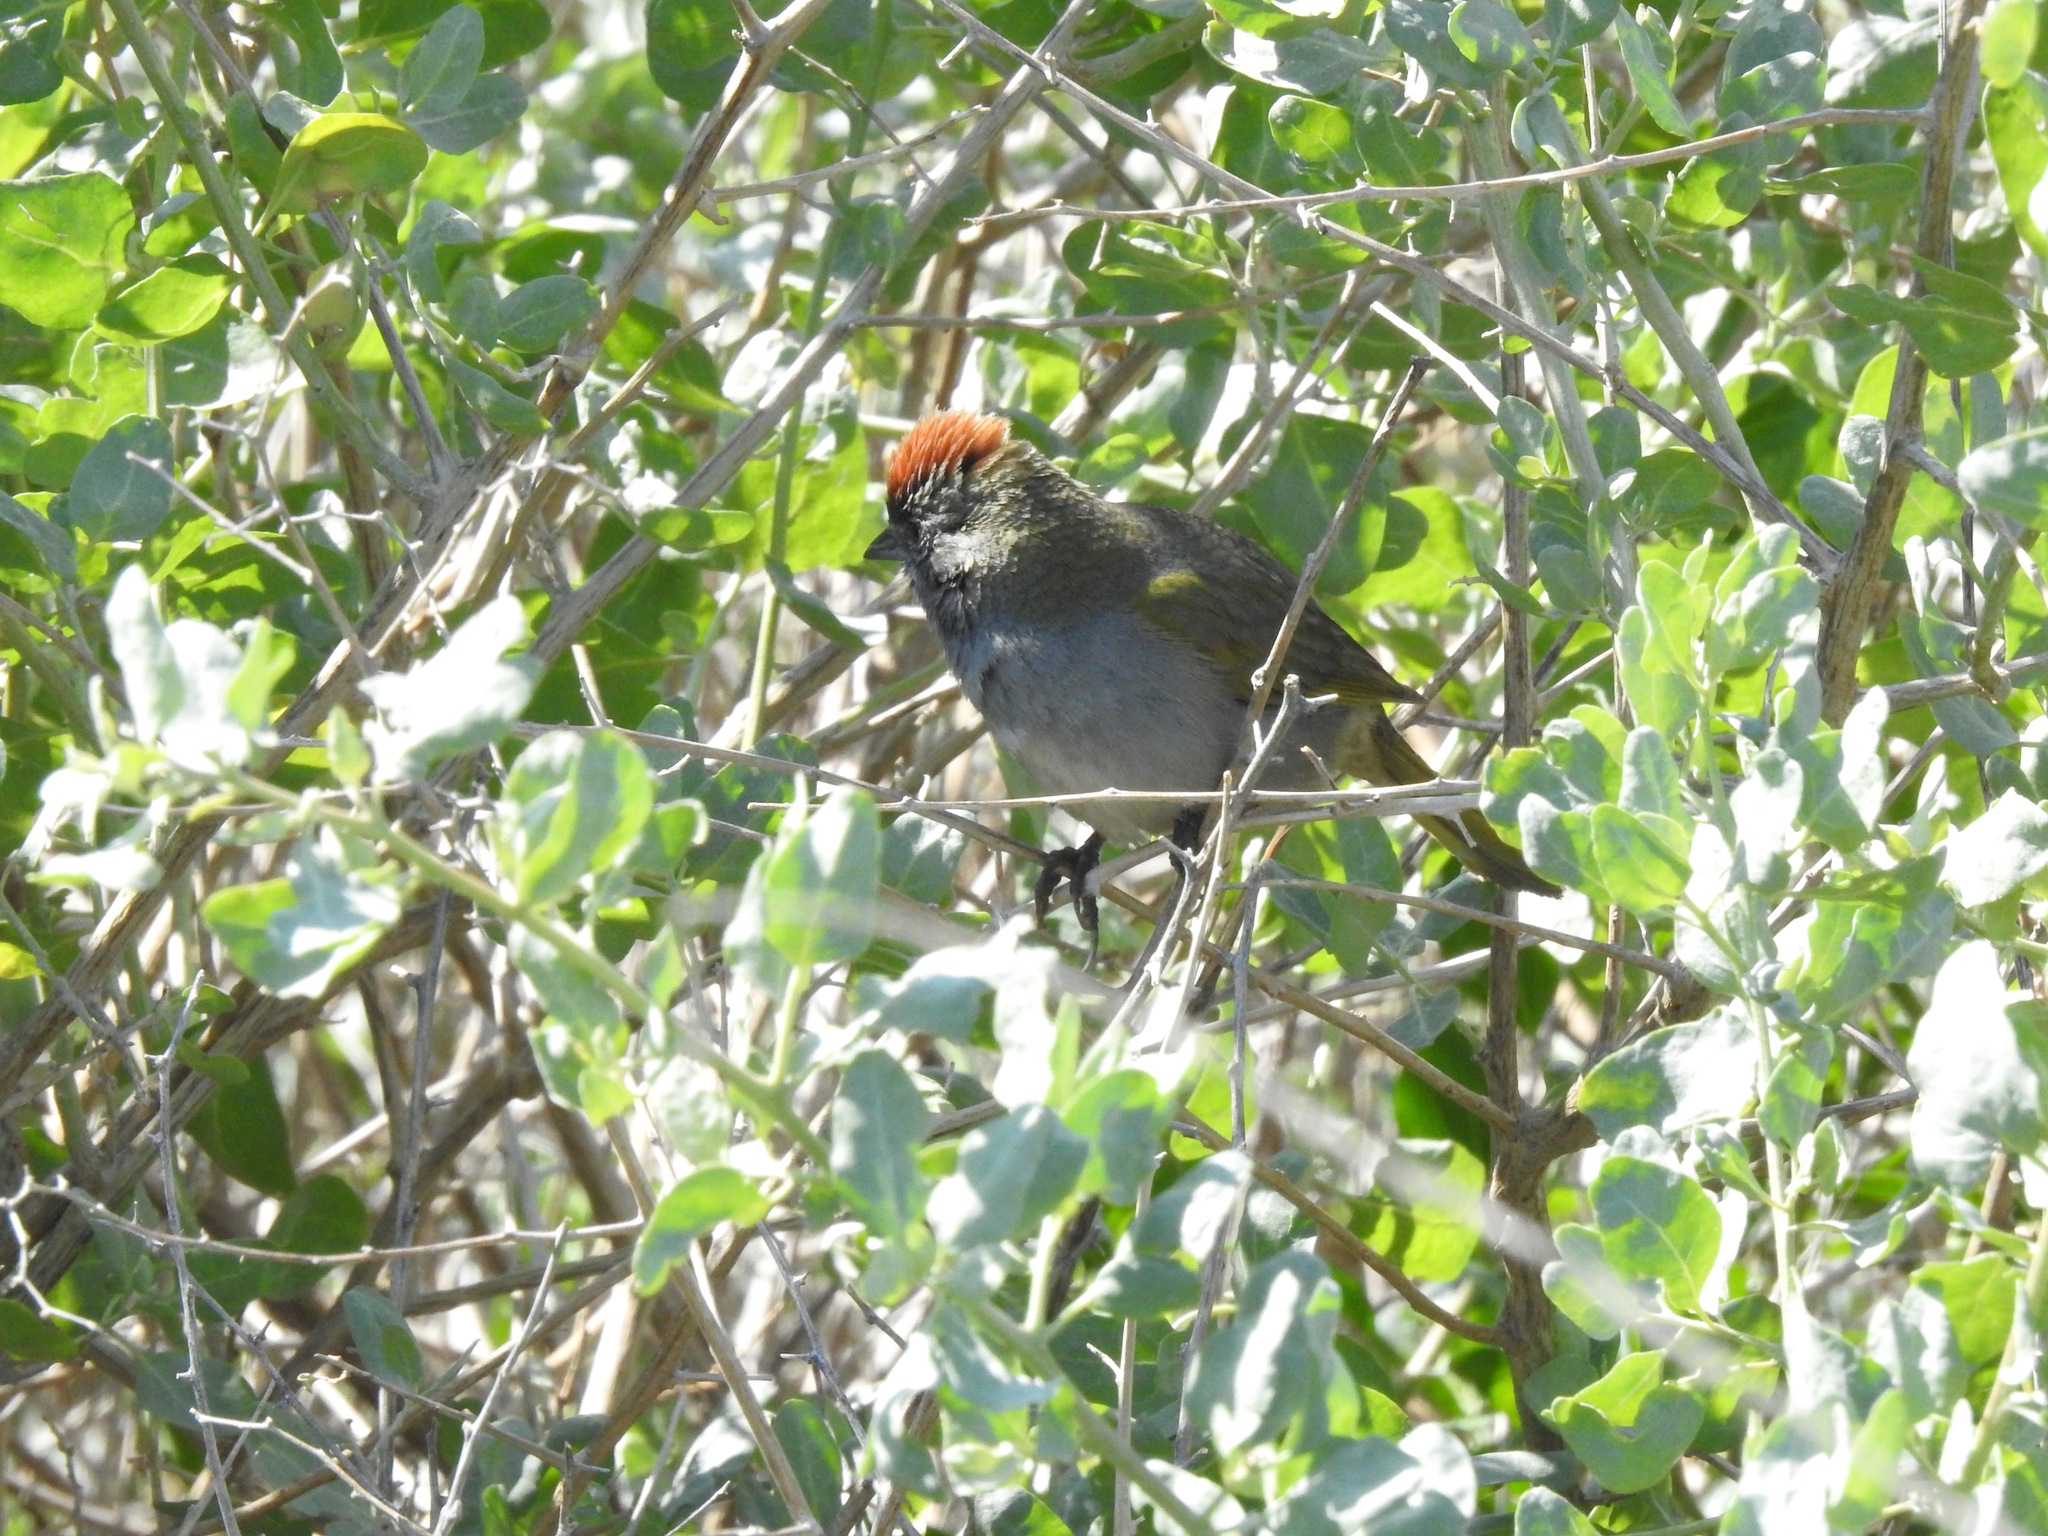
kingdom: Animalia
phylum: Chordata
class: Aves
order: Passeriformes
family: Passerellidae
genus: Pipilo
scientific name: Pipilo chlorurus
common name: Green-tailed towhee
